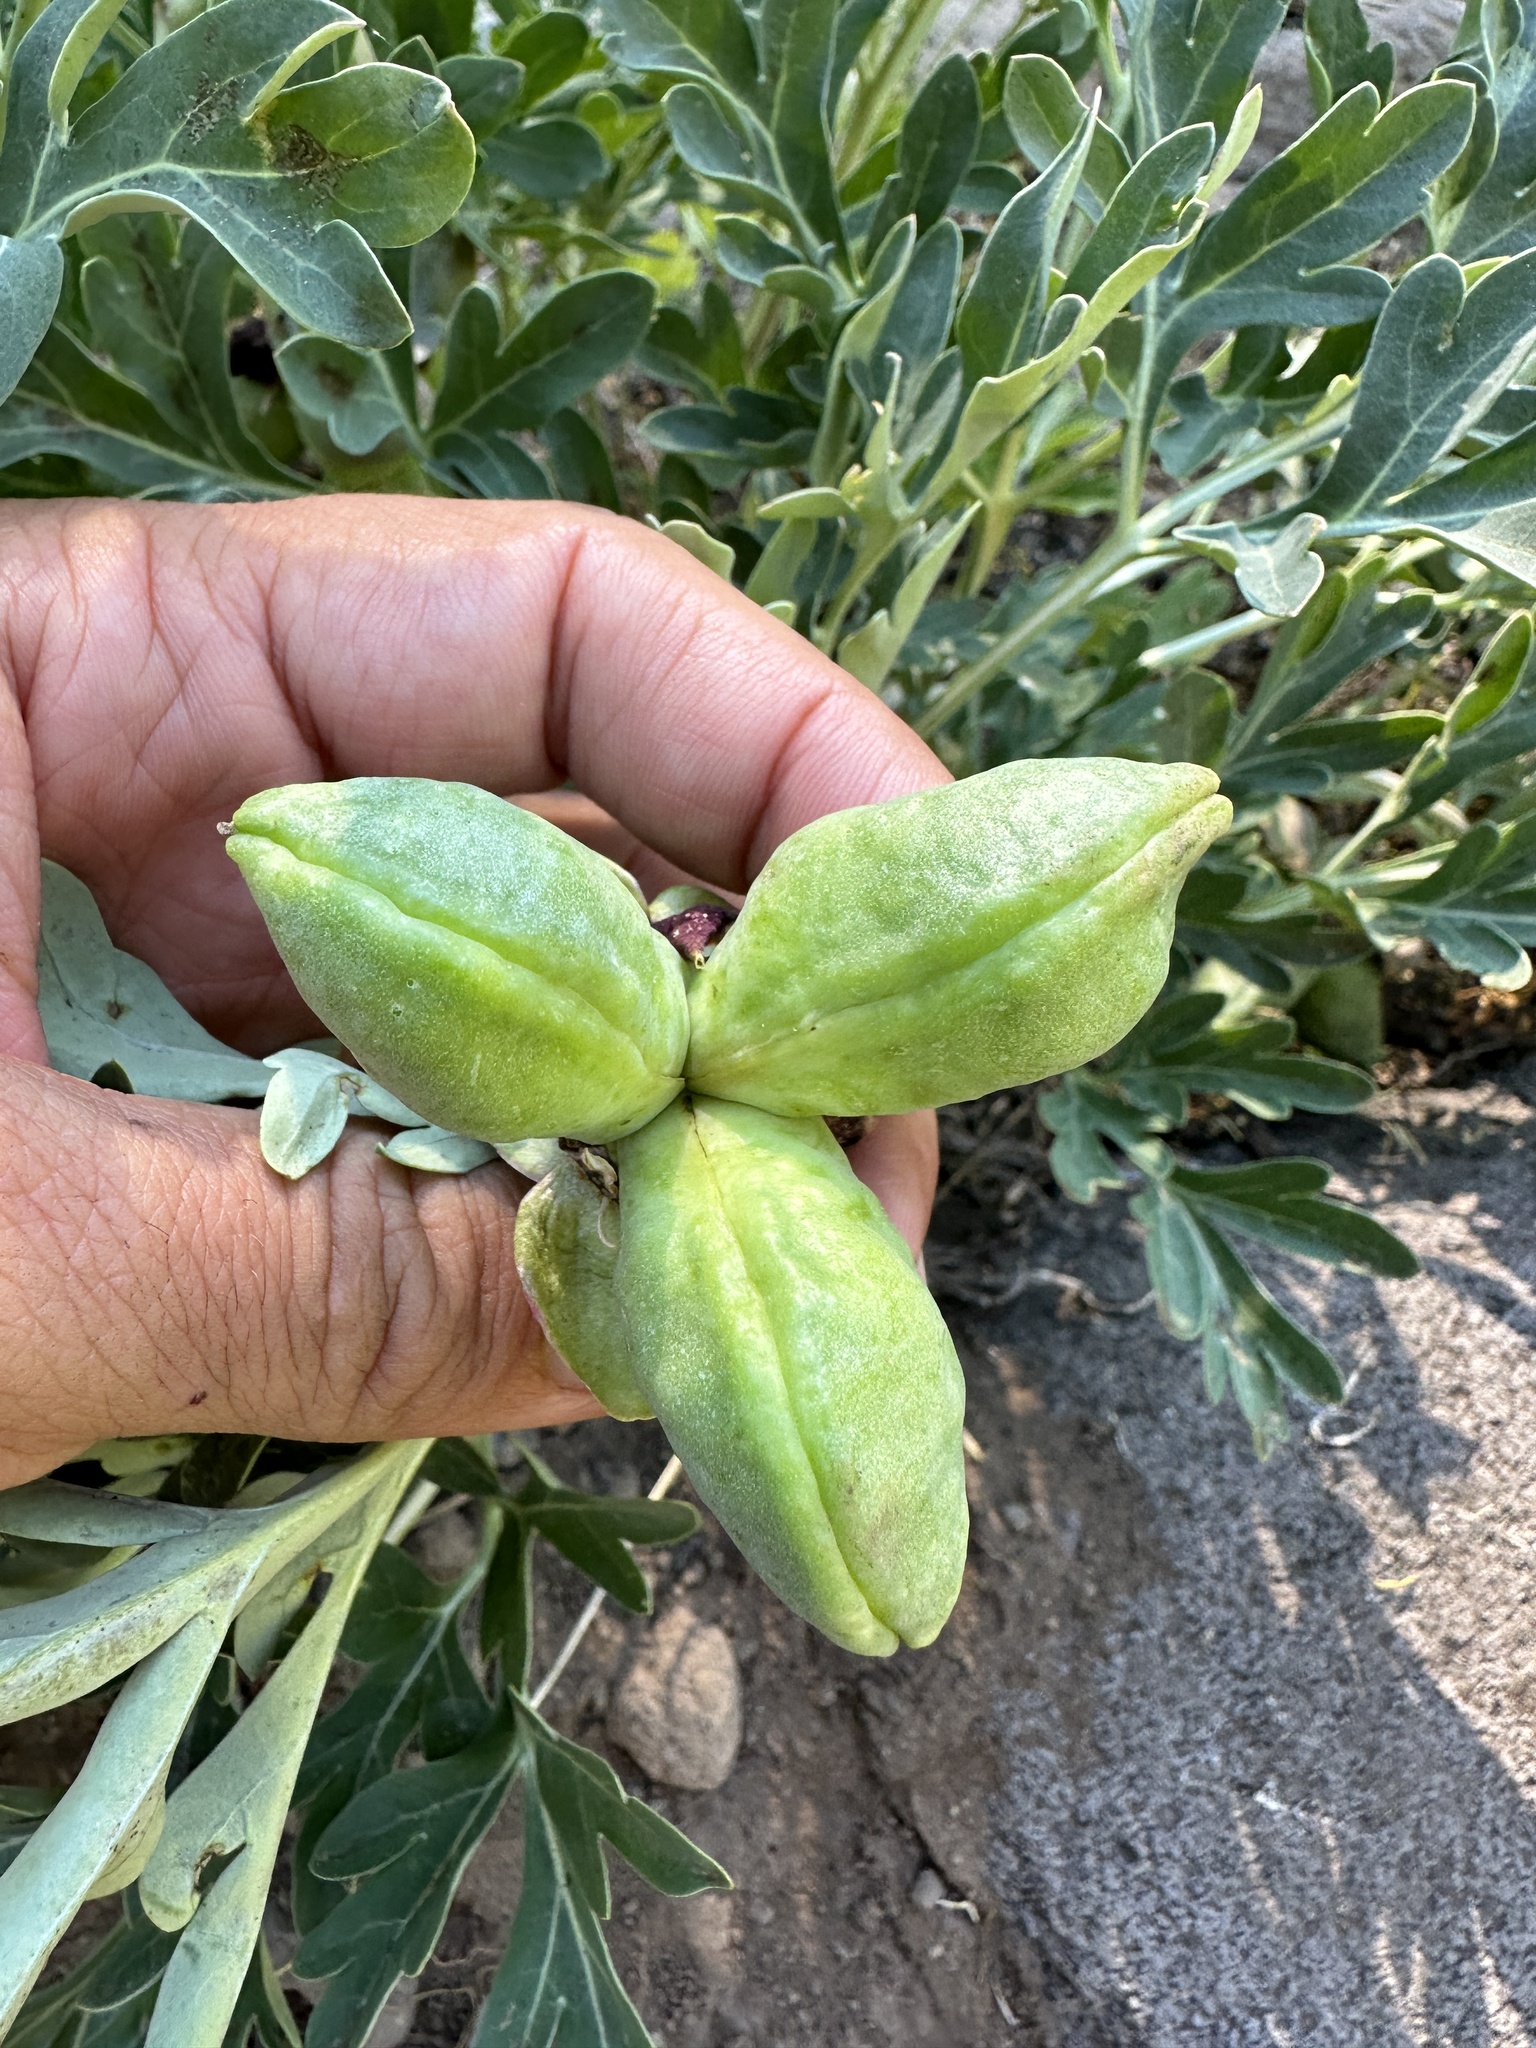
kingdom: Plantae
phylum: Tracheophyta
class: Magnoliopsida
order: Saxifragales
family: Paeoniaceae
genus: Paeonia
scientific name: Paeonia brownii
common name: Brown's peony
